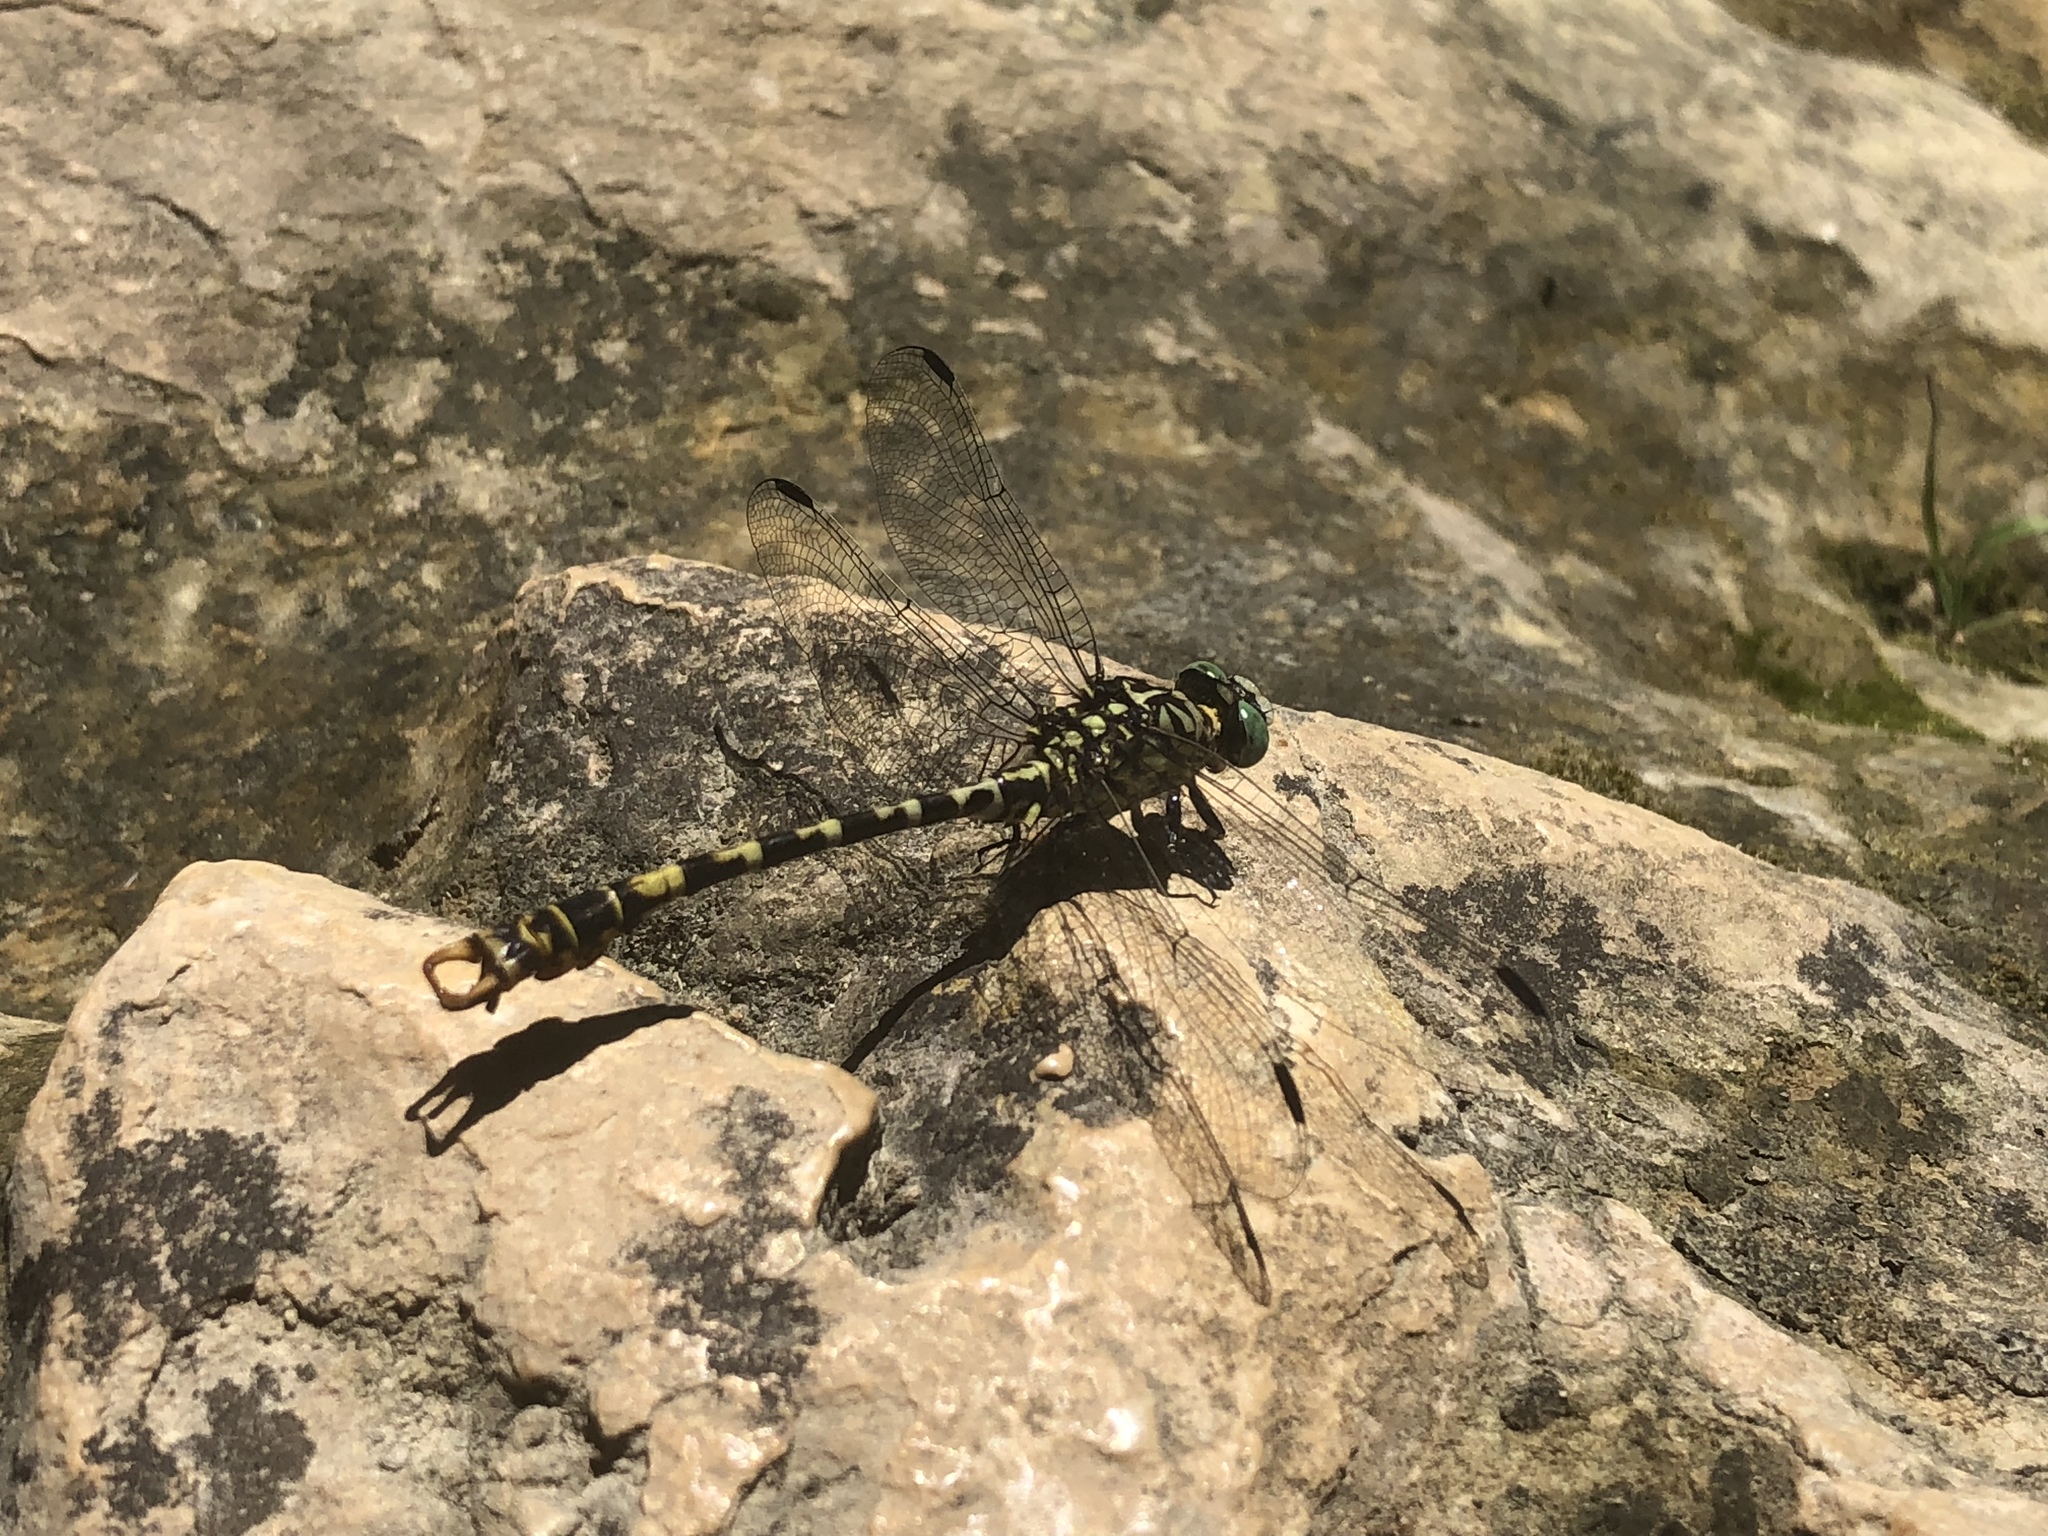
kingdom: Animalia
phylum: Arthropoda
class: Insecta
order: Odonata
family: Gomphidae
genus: Onychogomphus
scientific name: Onychogomphus forcipatus
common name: Small pincertail
